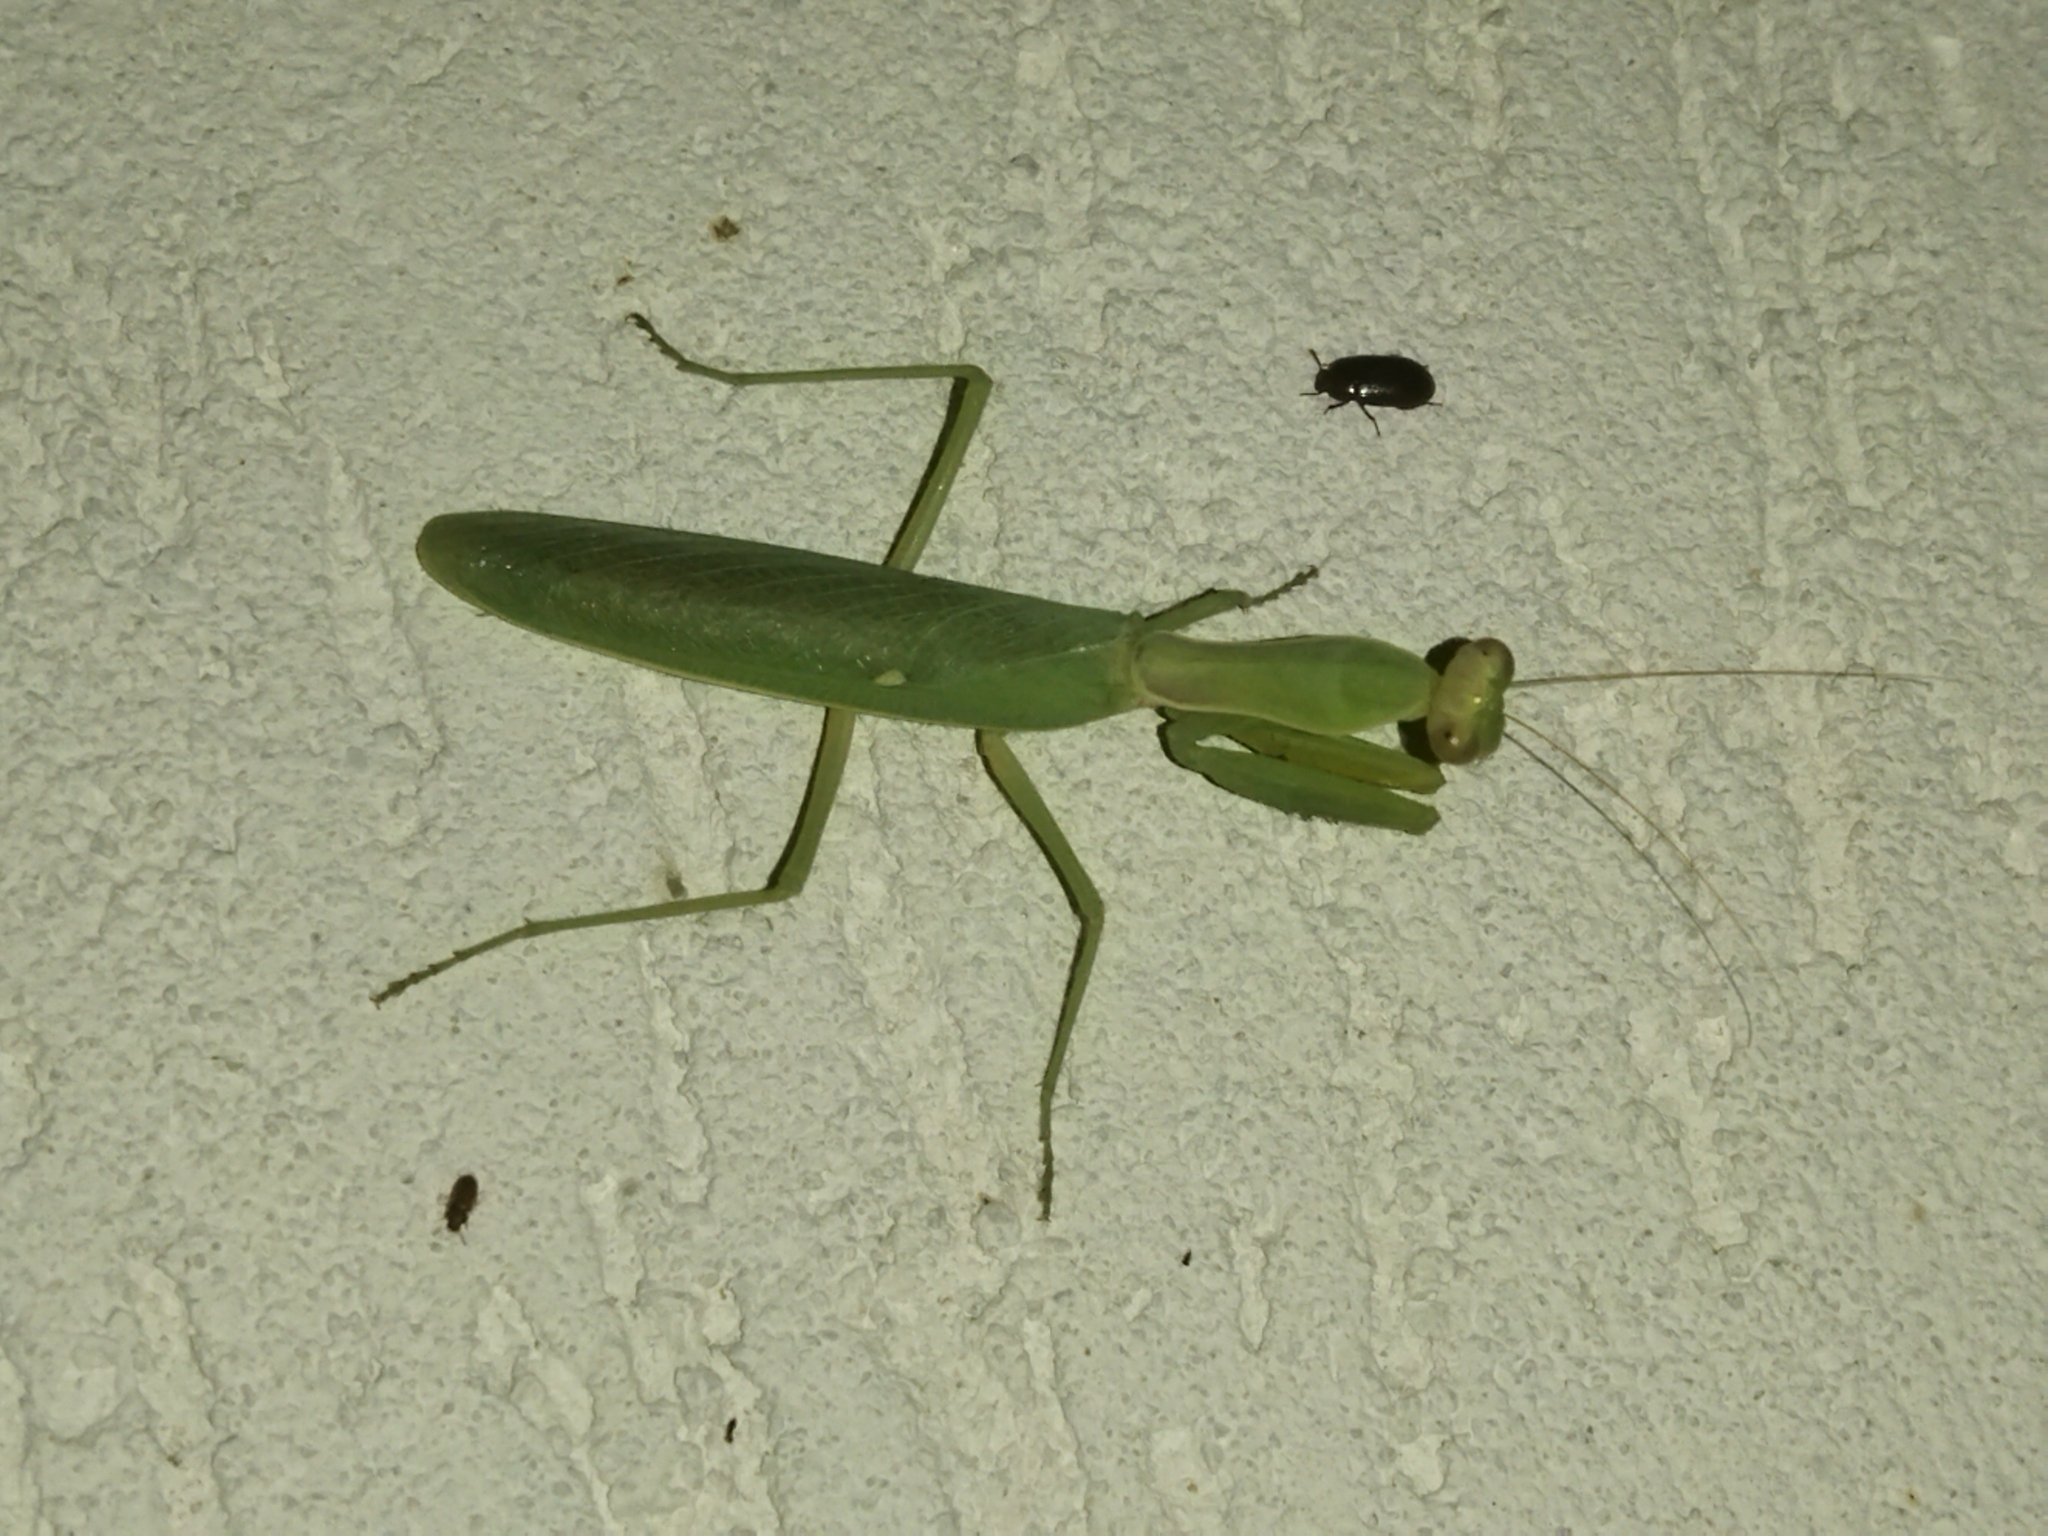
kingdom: Animalia
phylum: Arthropoda
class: Insecta
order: Mantodea
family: Mantidae
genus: Hierodula
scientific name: Hierodula transcaucasica
